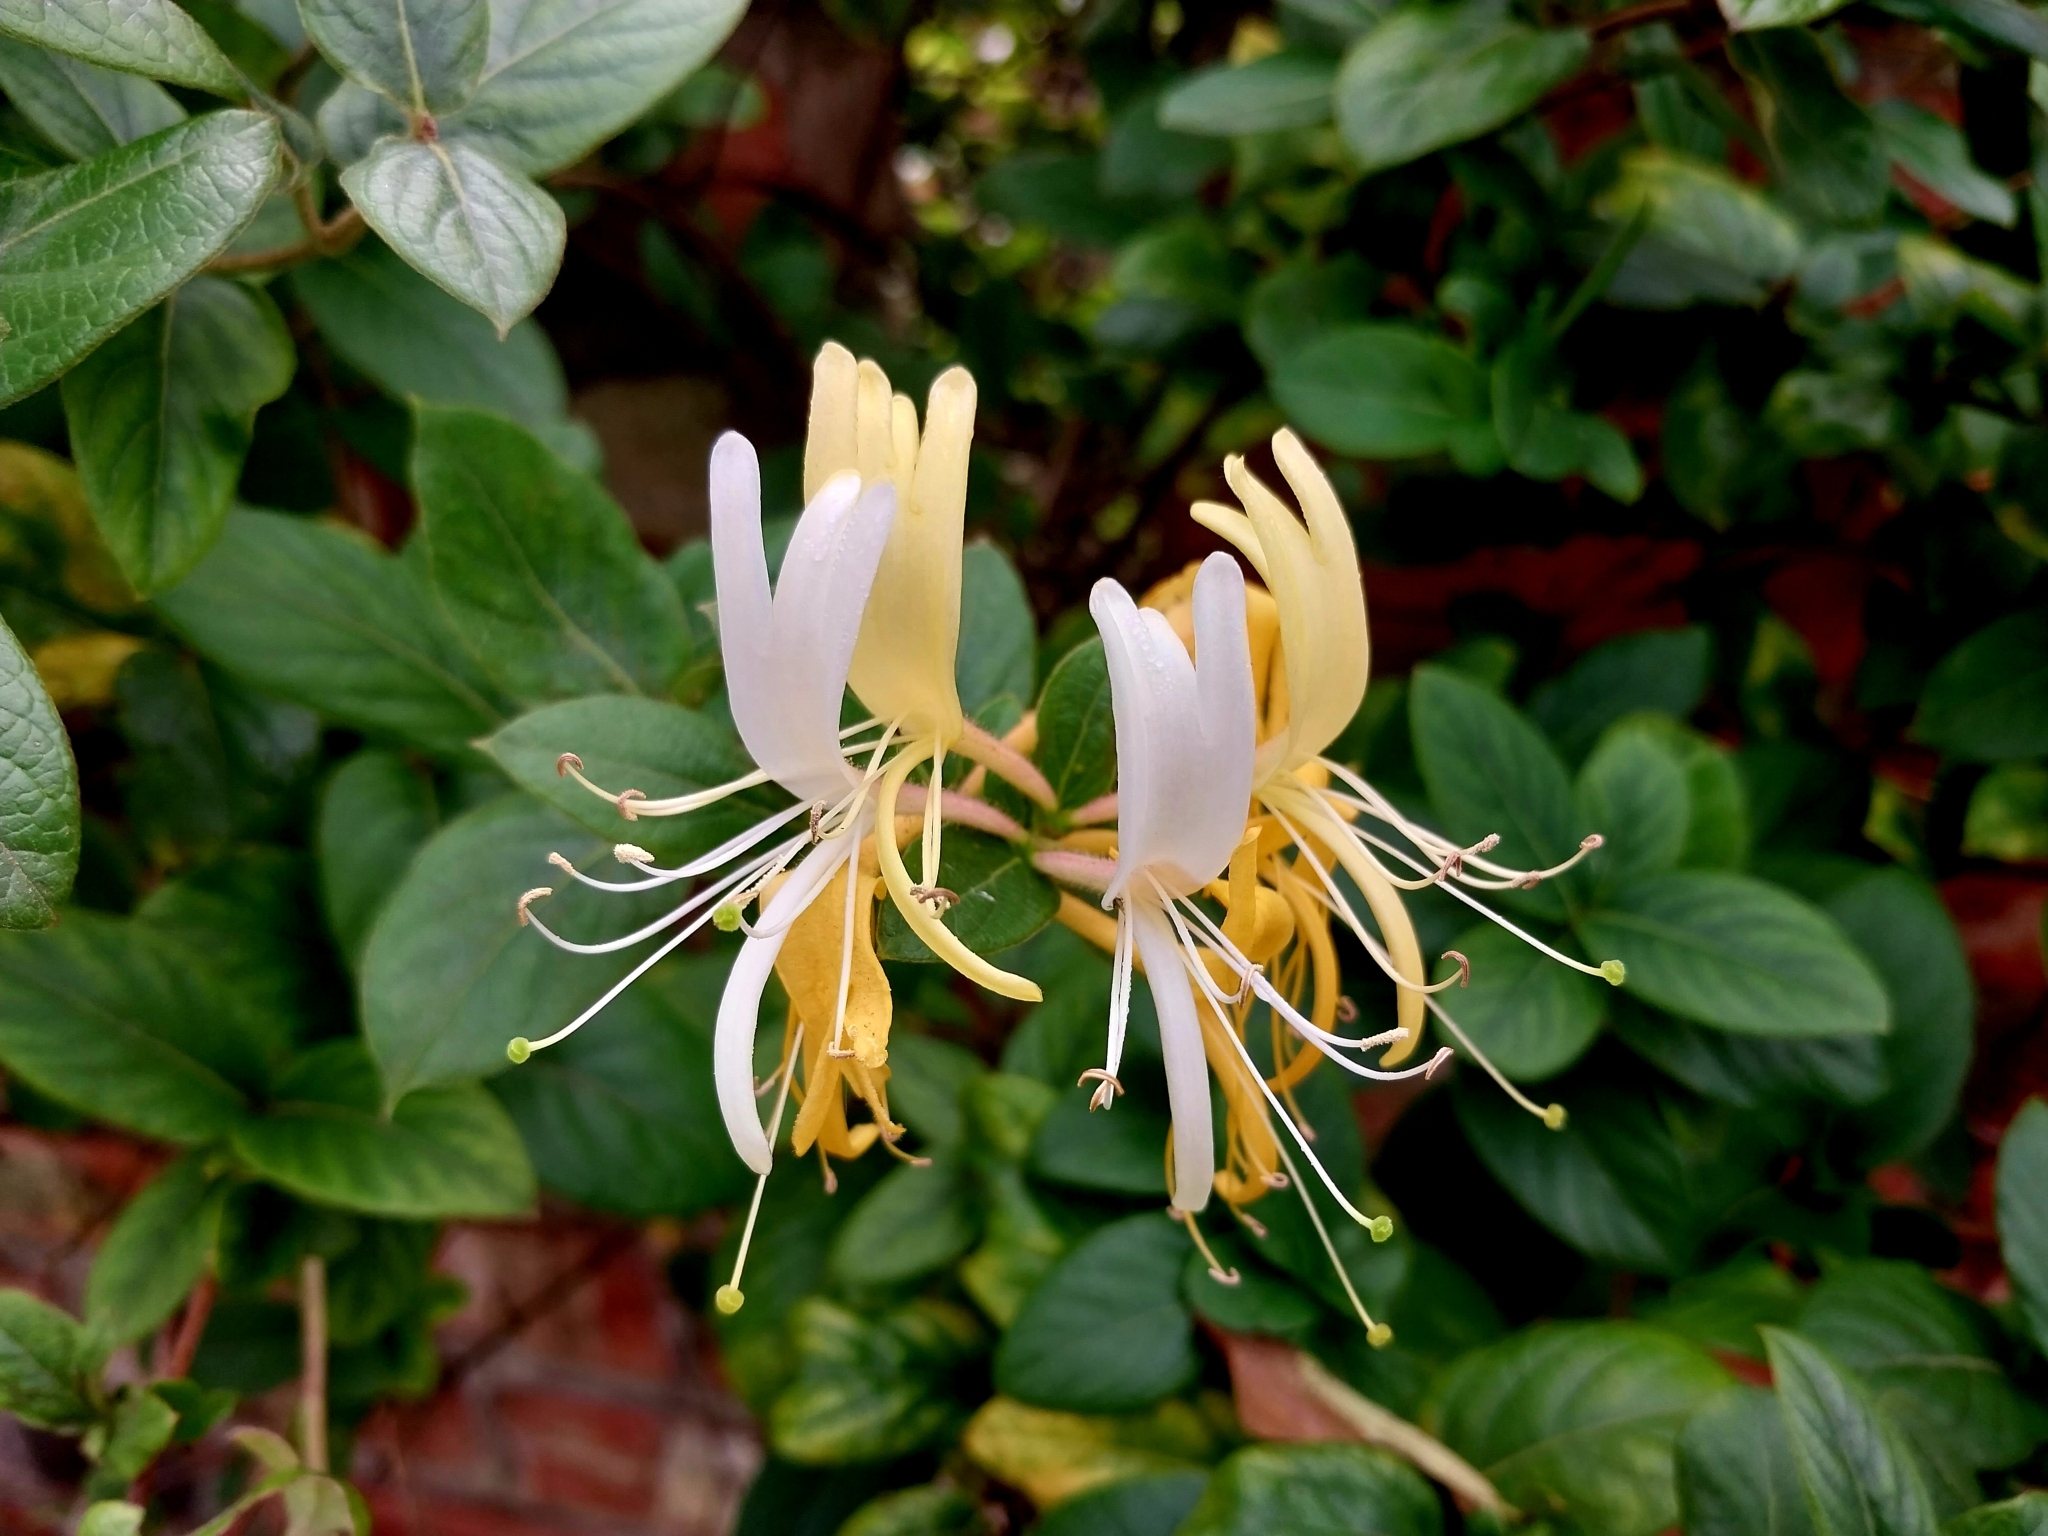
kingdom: Plantae
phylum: Tracheophyta
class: Magnoliopsida
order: Dipsacales
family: Caprifoliaceae
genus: Lonicera
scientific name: Lonicera japonica
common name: Japanese honeysuckle
